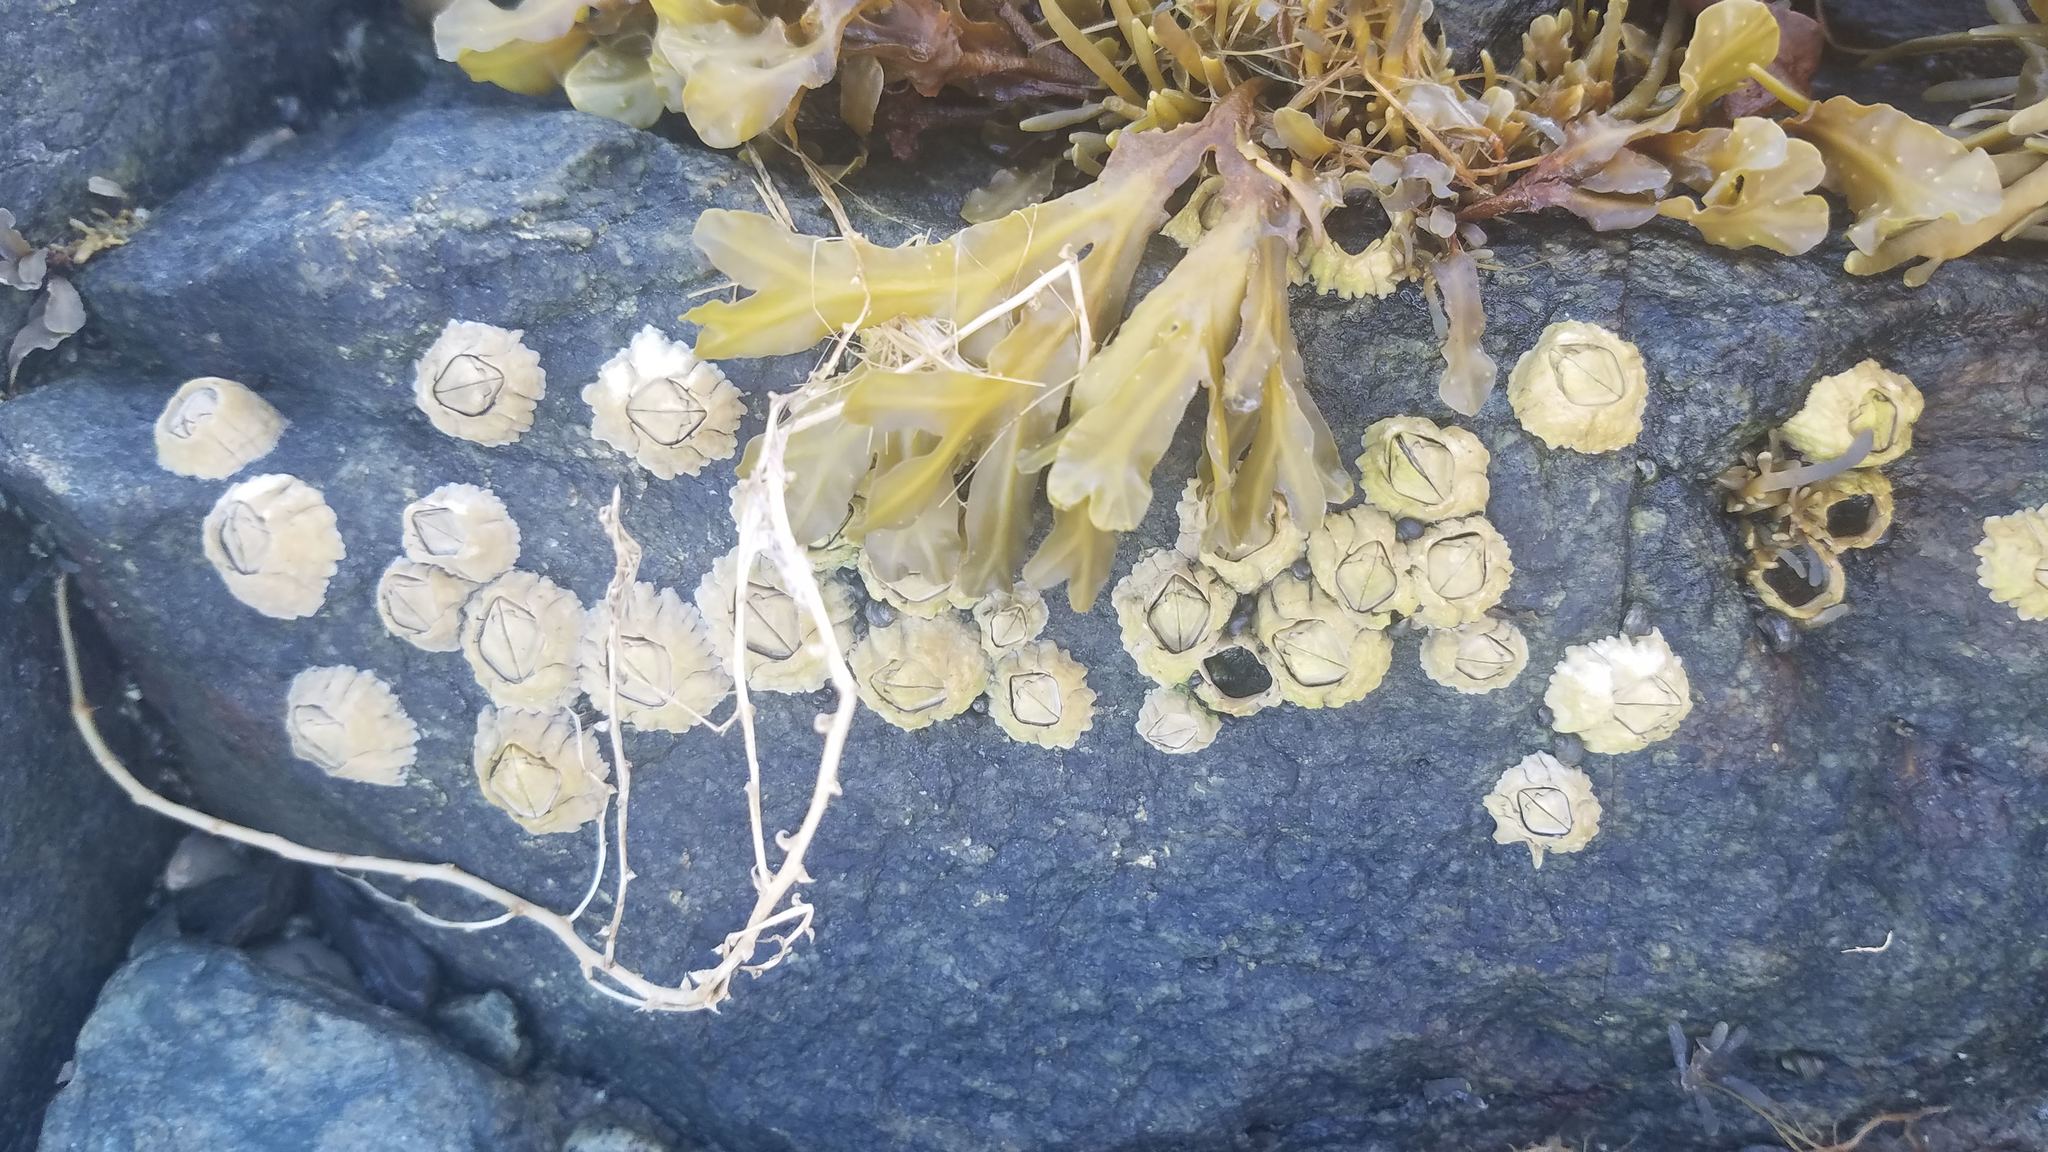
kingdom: Animalia
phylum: Arthropoda
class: Maxillopoda
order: Sessilia
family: Archaeobalanidae
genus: Semibalanus
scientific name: Semibalanus balanoides
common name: Acorn barnacle
